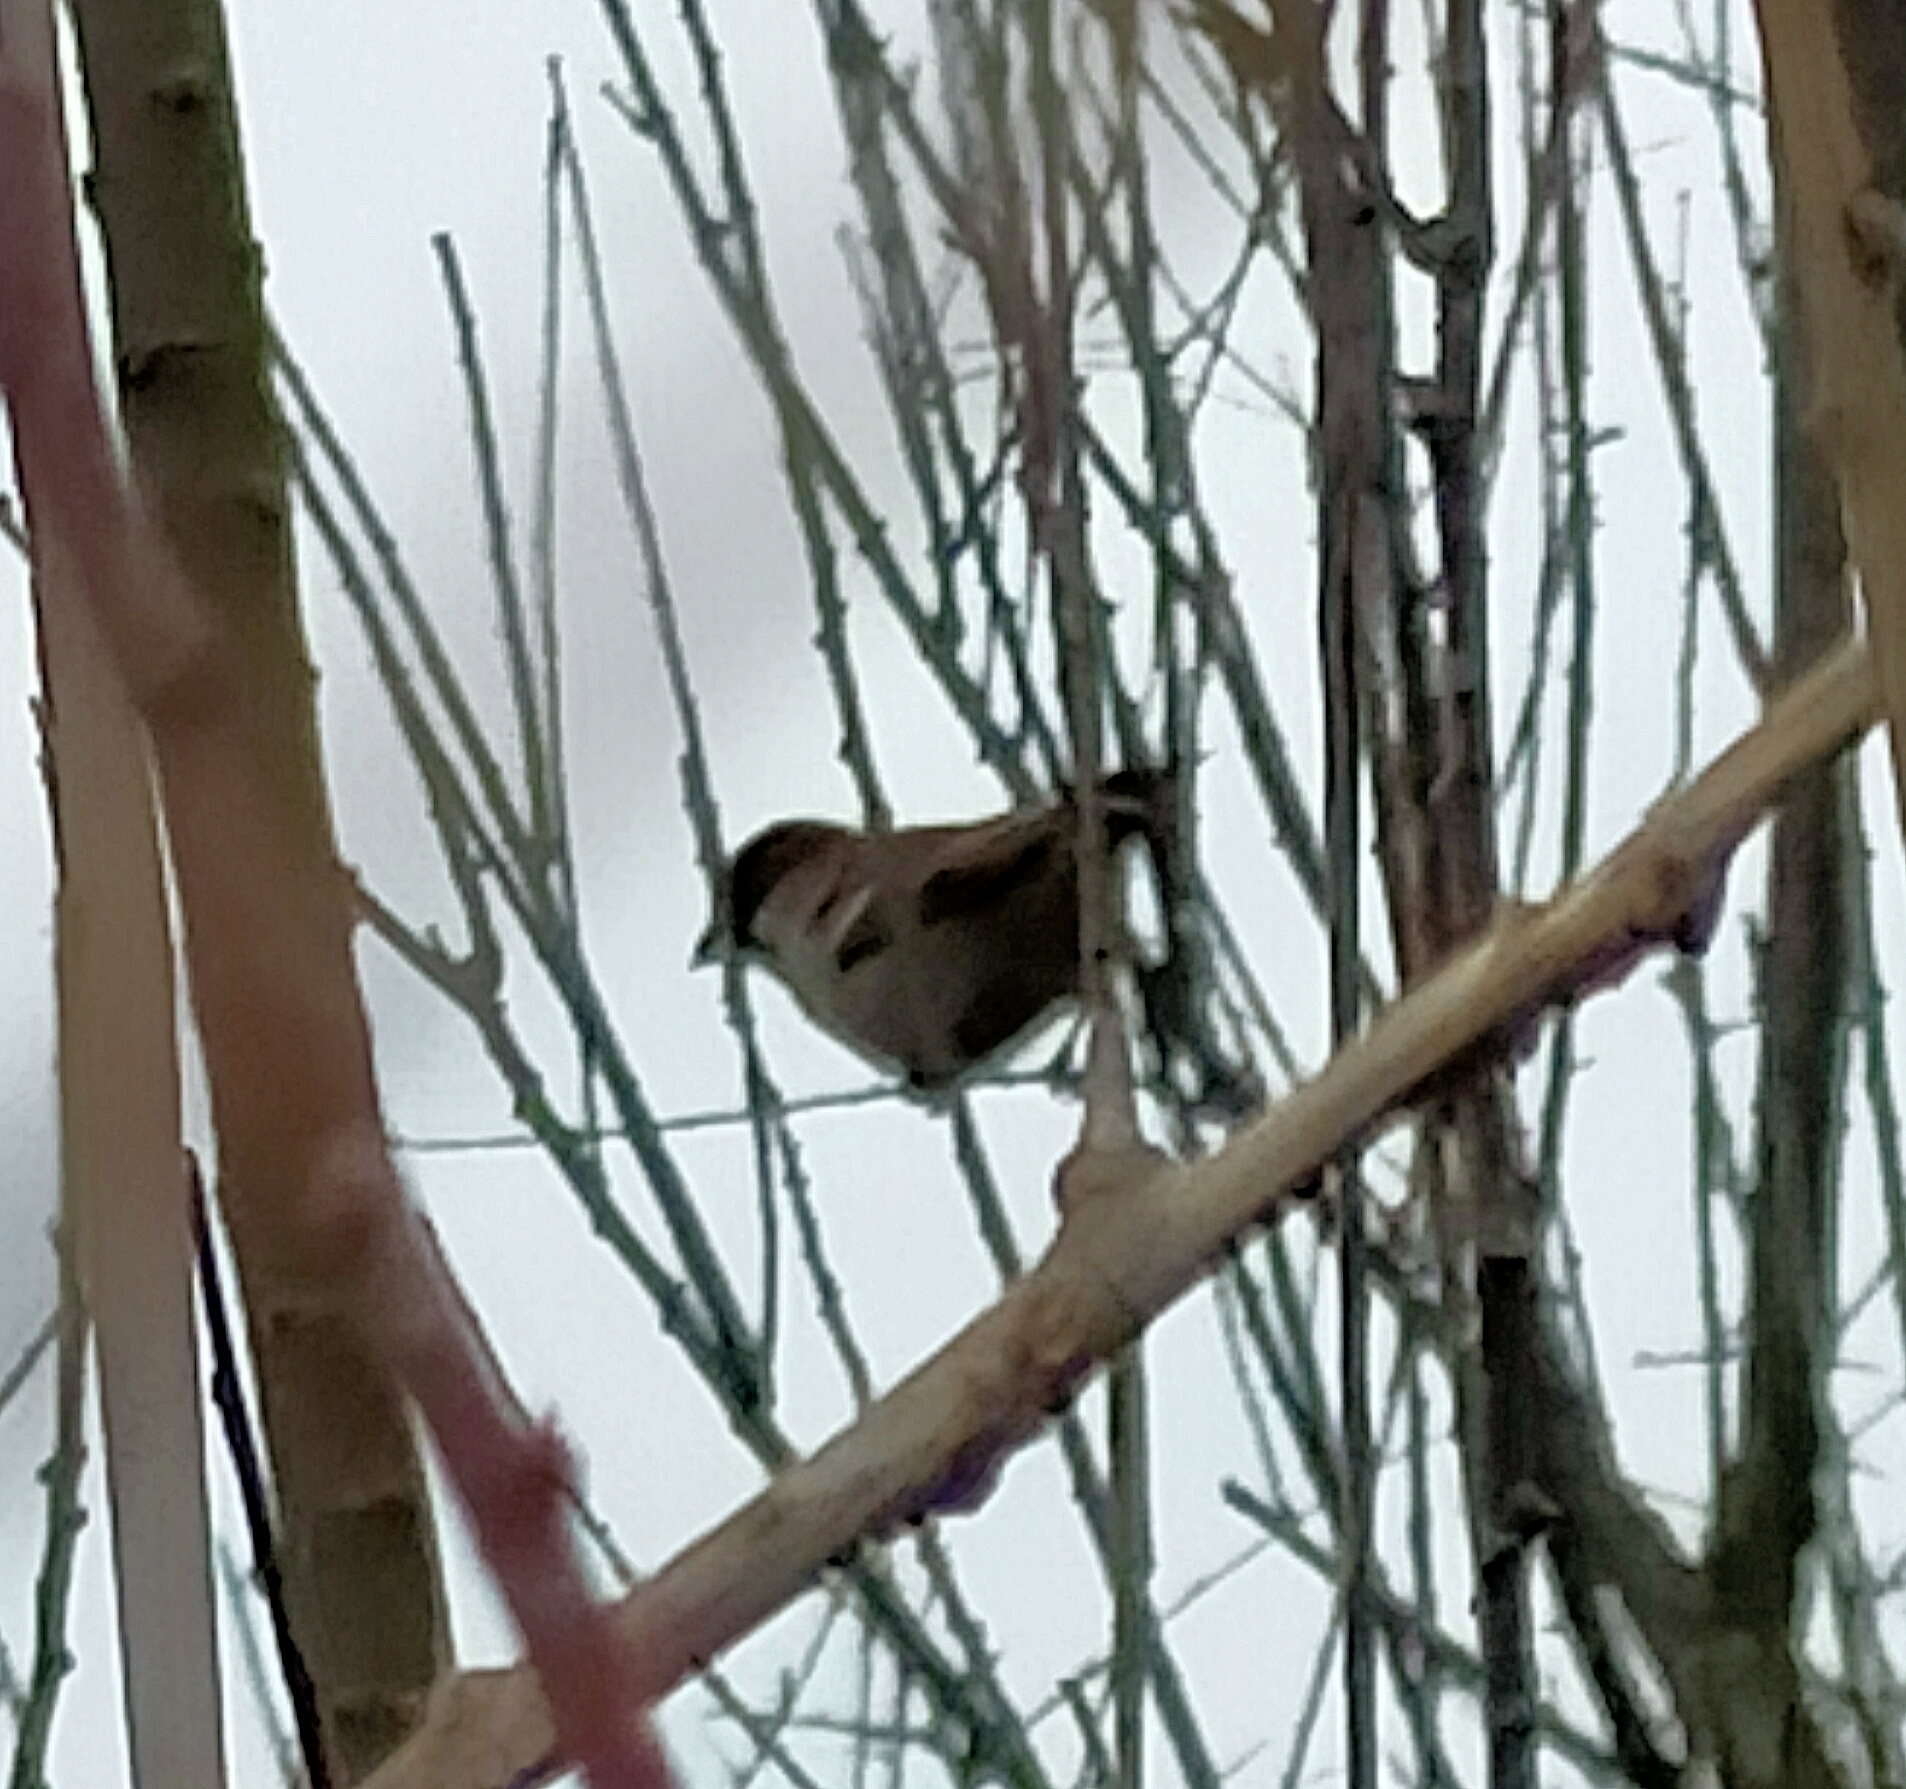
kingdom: Animalia
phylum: Chordata
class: Aves
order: Passeriformes
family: Passeridae
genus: Passer
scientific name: Passer domesticus
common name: House sparrow
